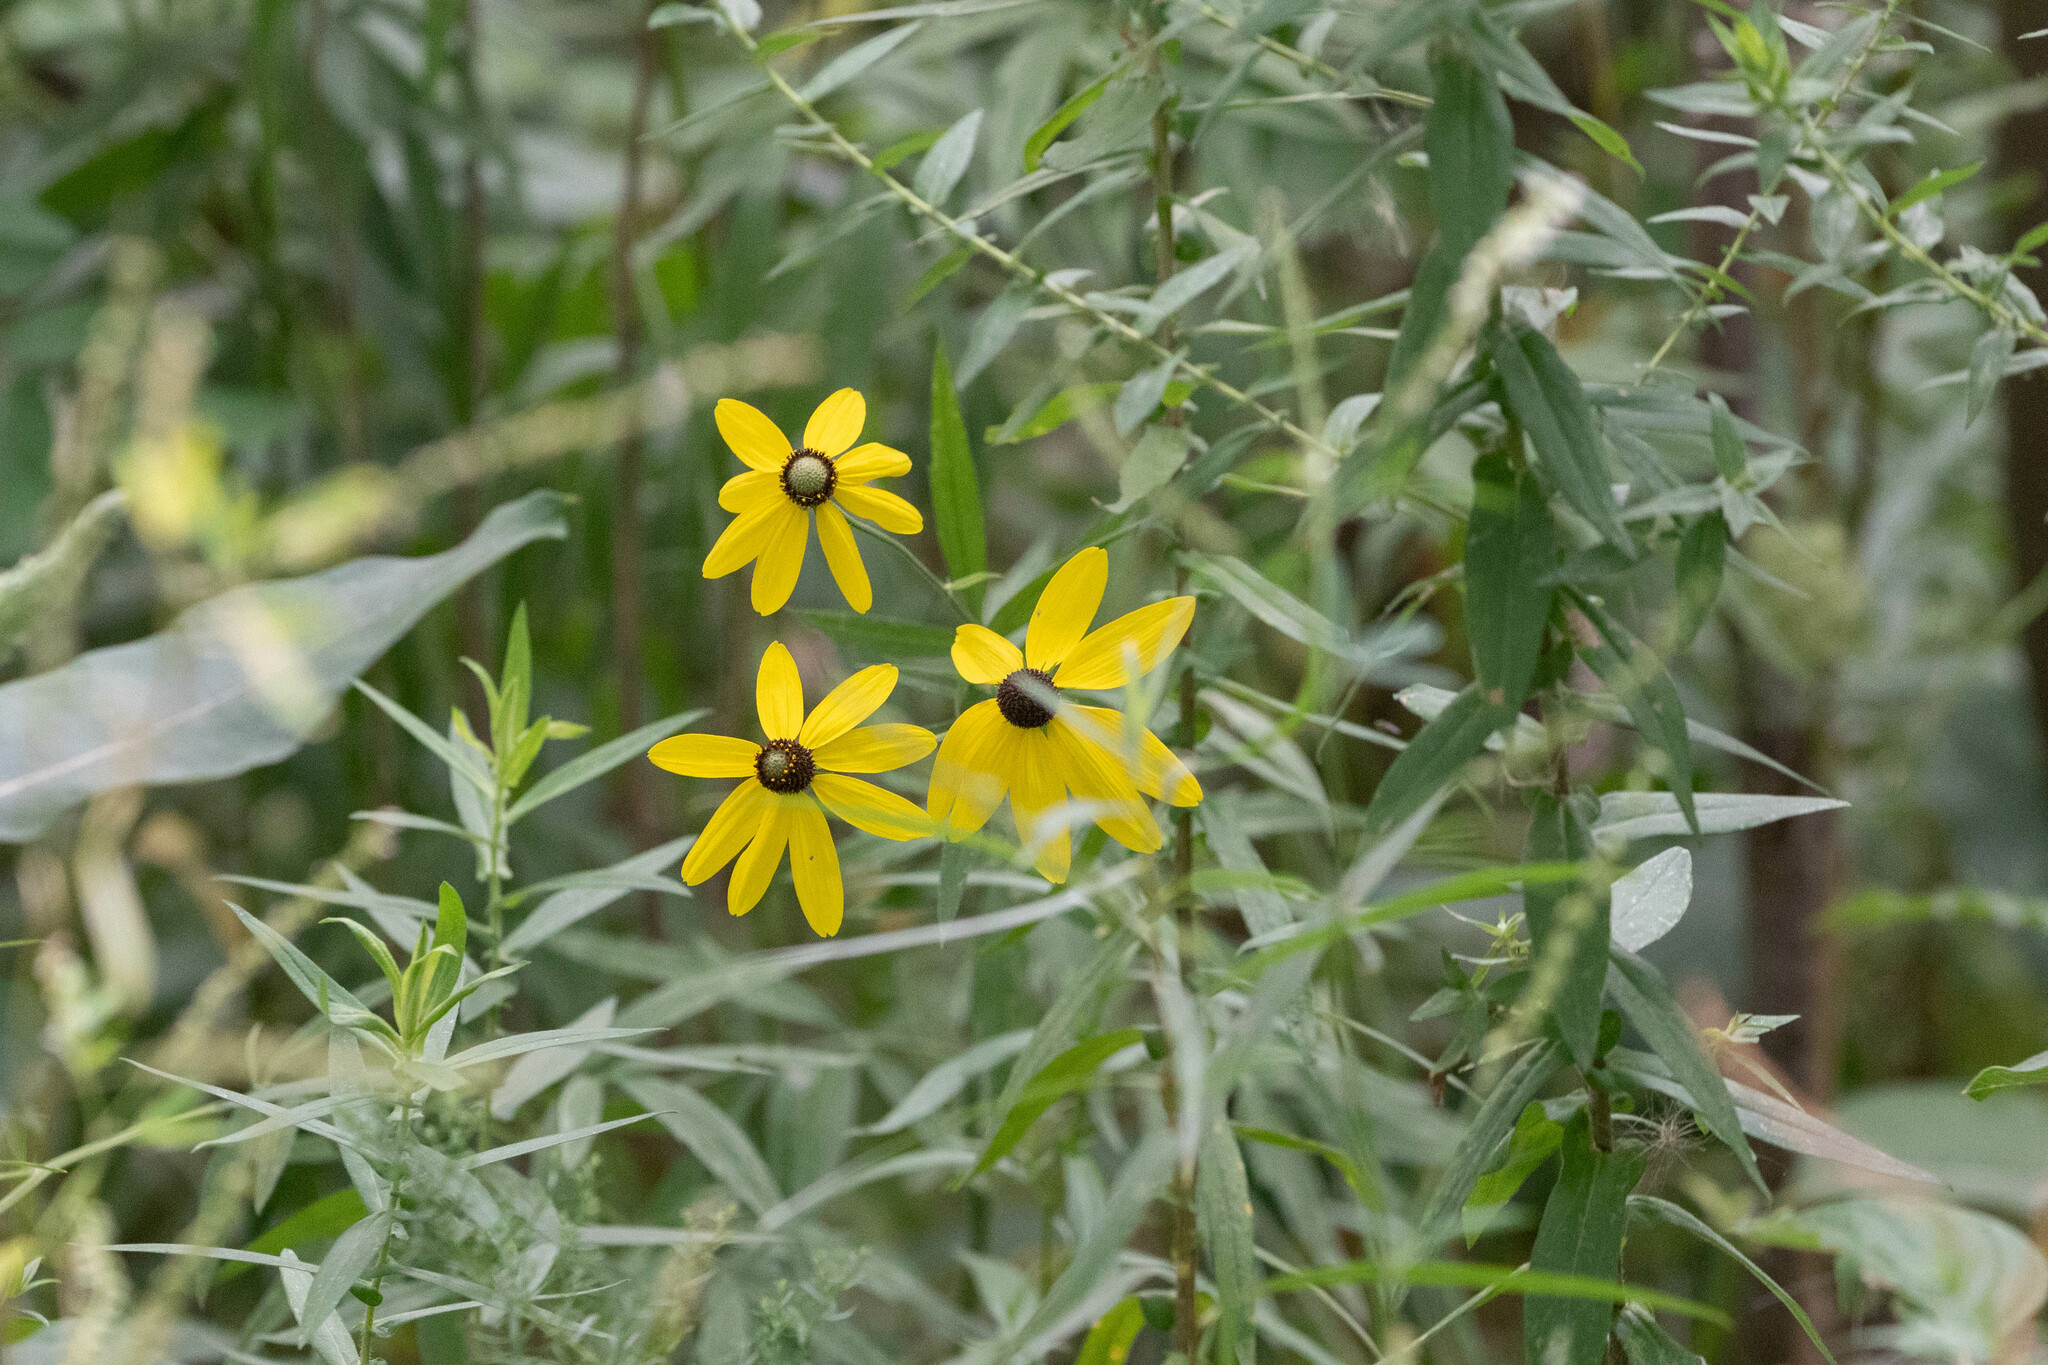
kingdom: Plantae
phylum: Tracheophyta
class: Magnoliopsida
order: Asterales
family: Asteraceae
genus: Ratibida
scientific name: Ratibida pinnata
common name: Drooping prairie-coneflower
